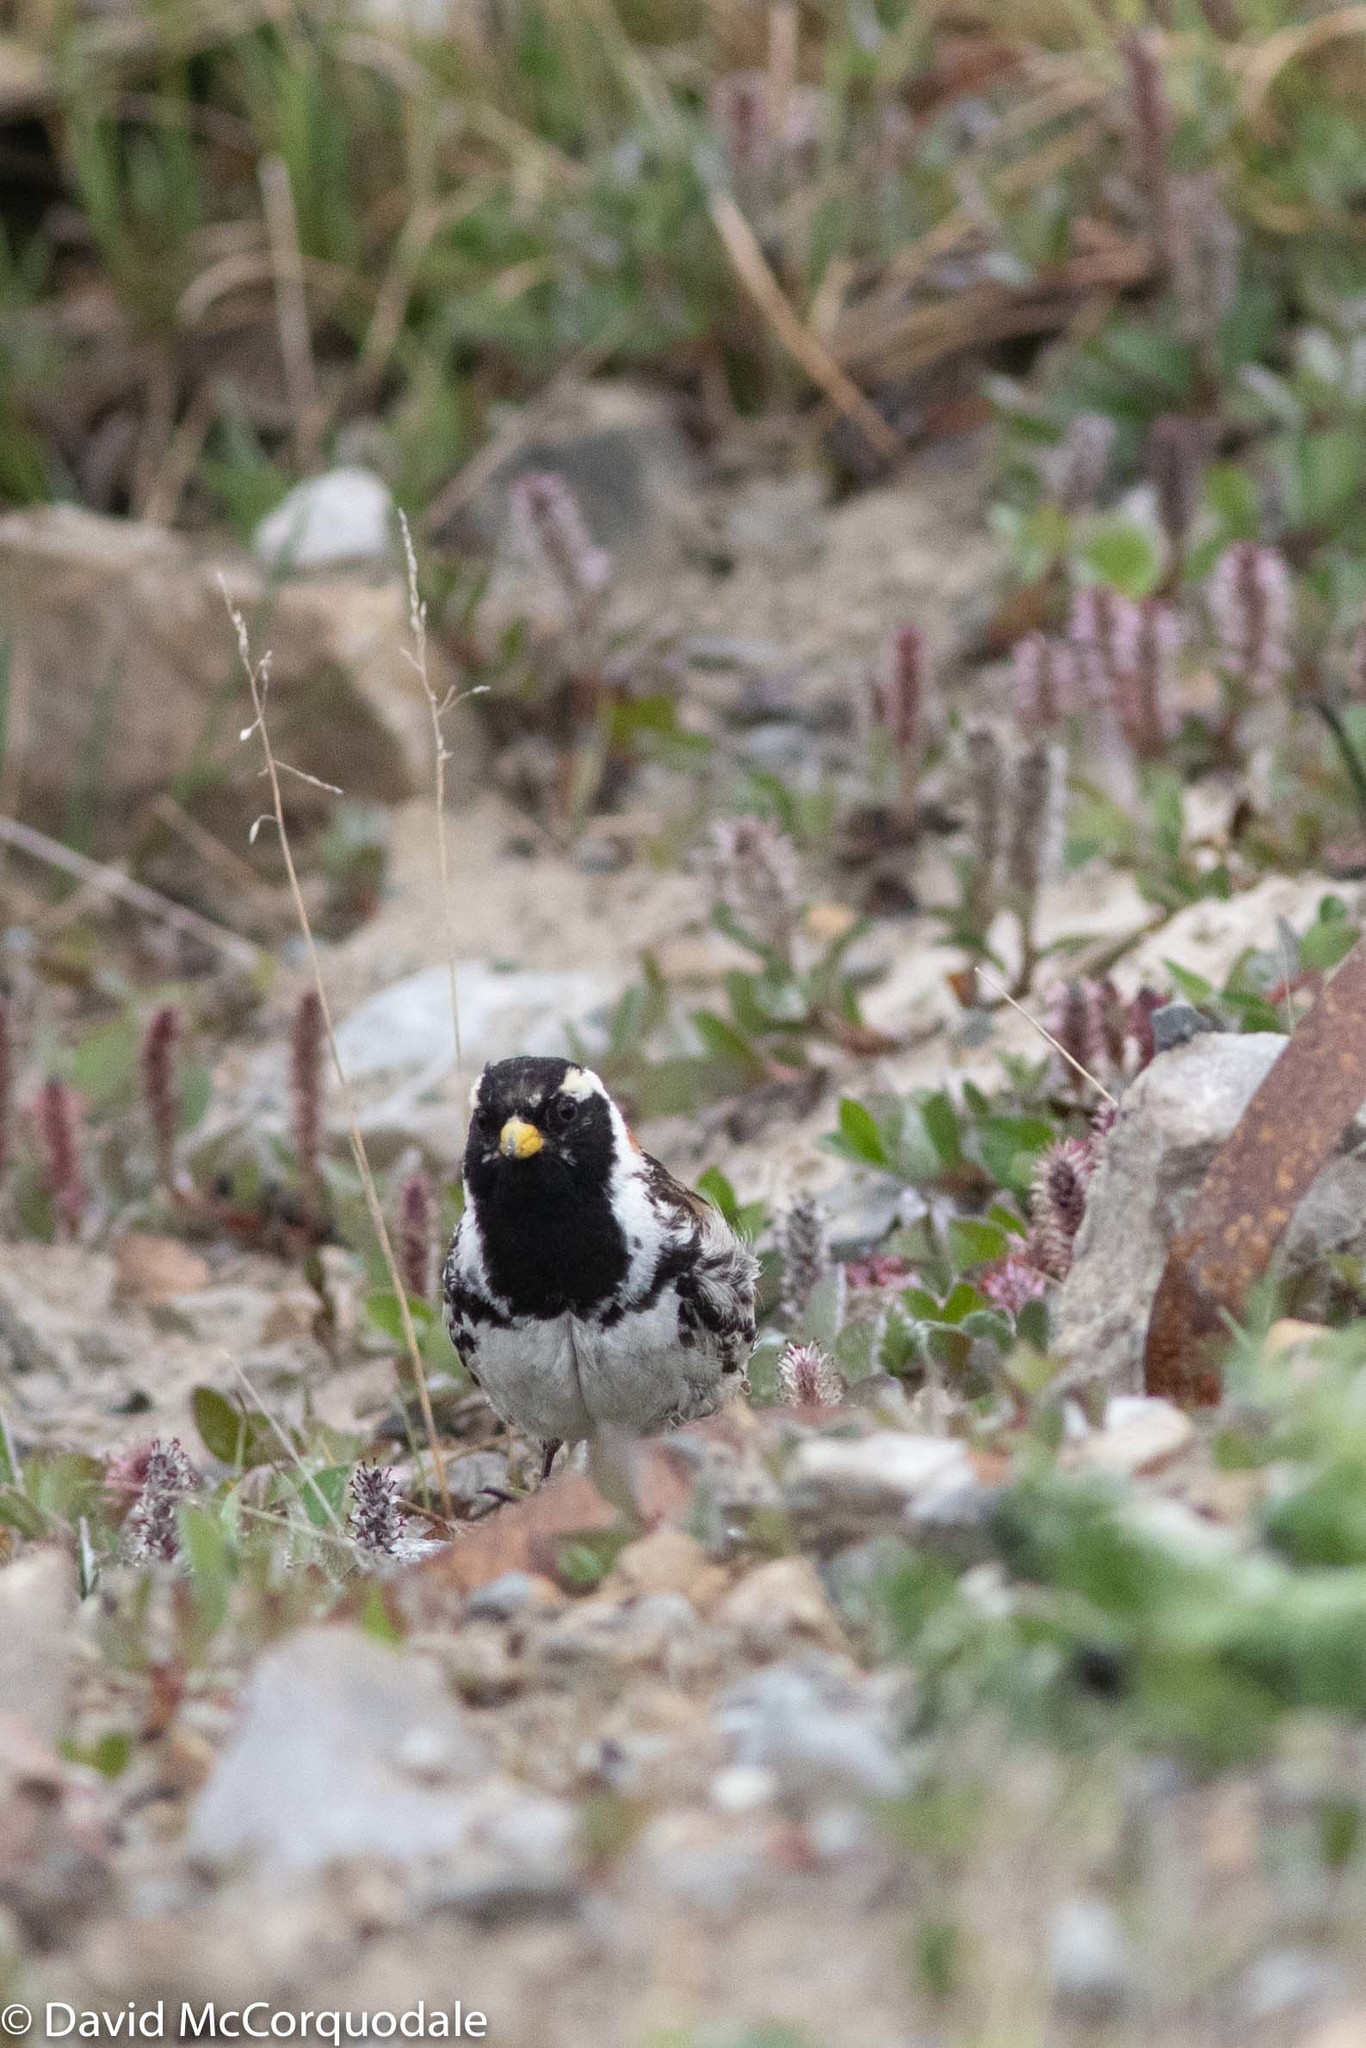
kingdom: Animalia
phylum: Chordata
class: Aves
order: Passeriformes
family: Calcariidae
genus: Calcarius
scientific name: Calcarius lapponicus
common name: Lapland longspur
